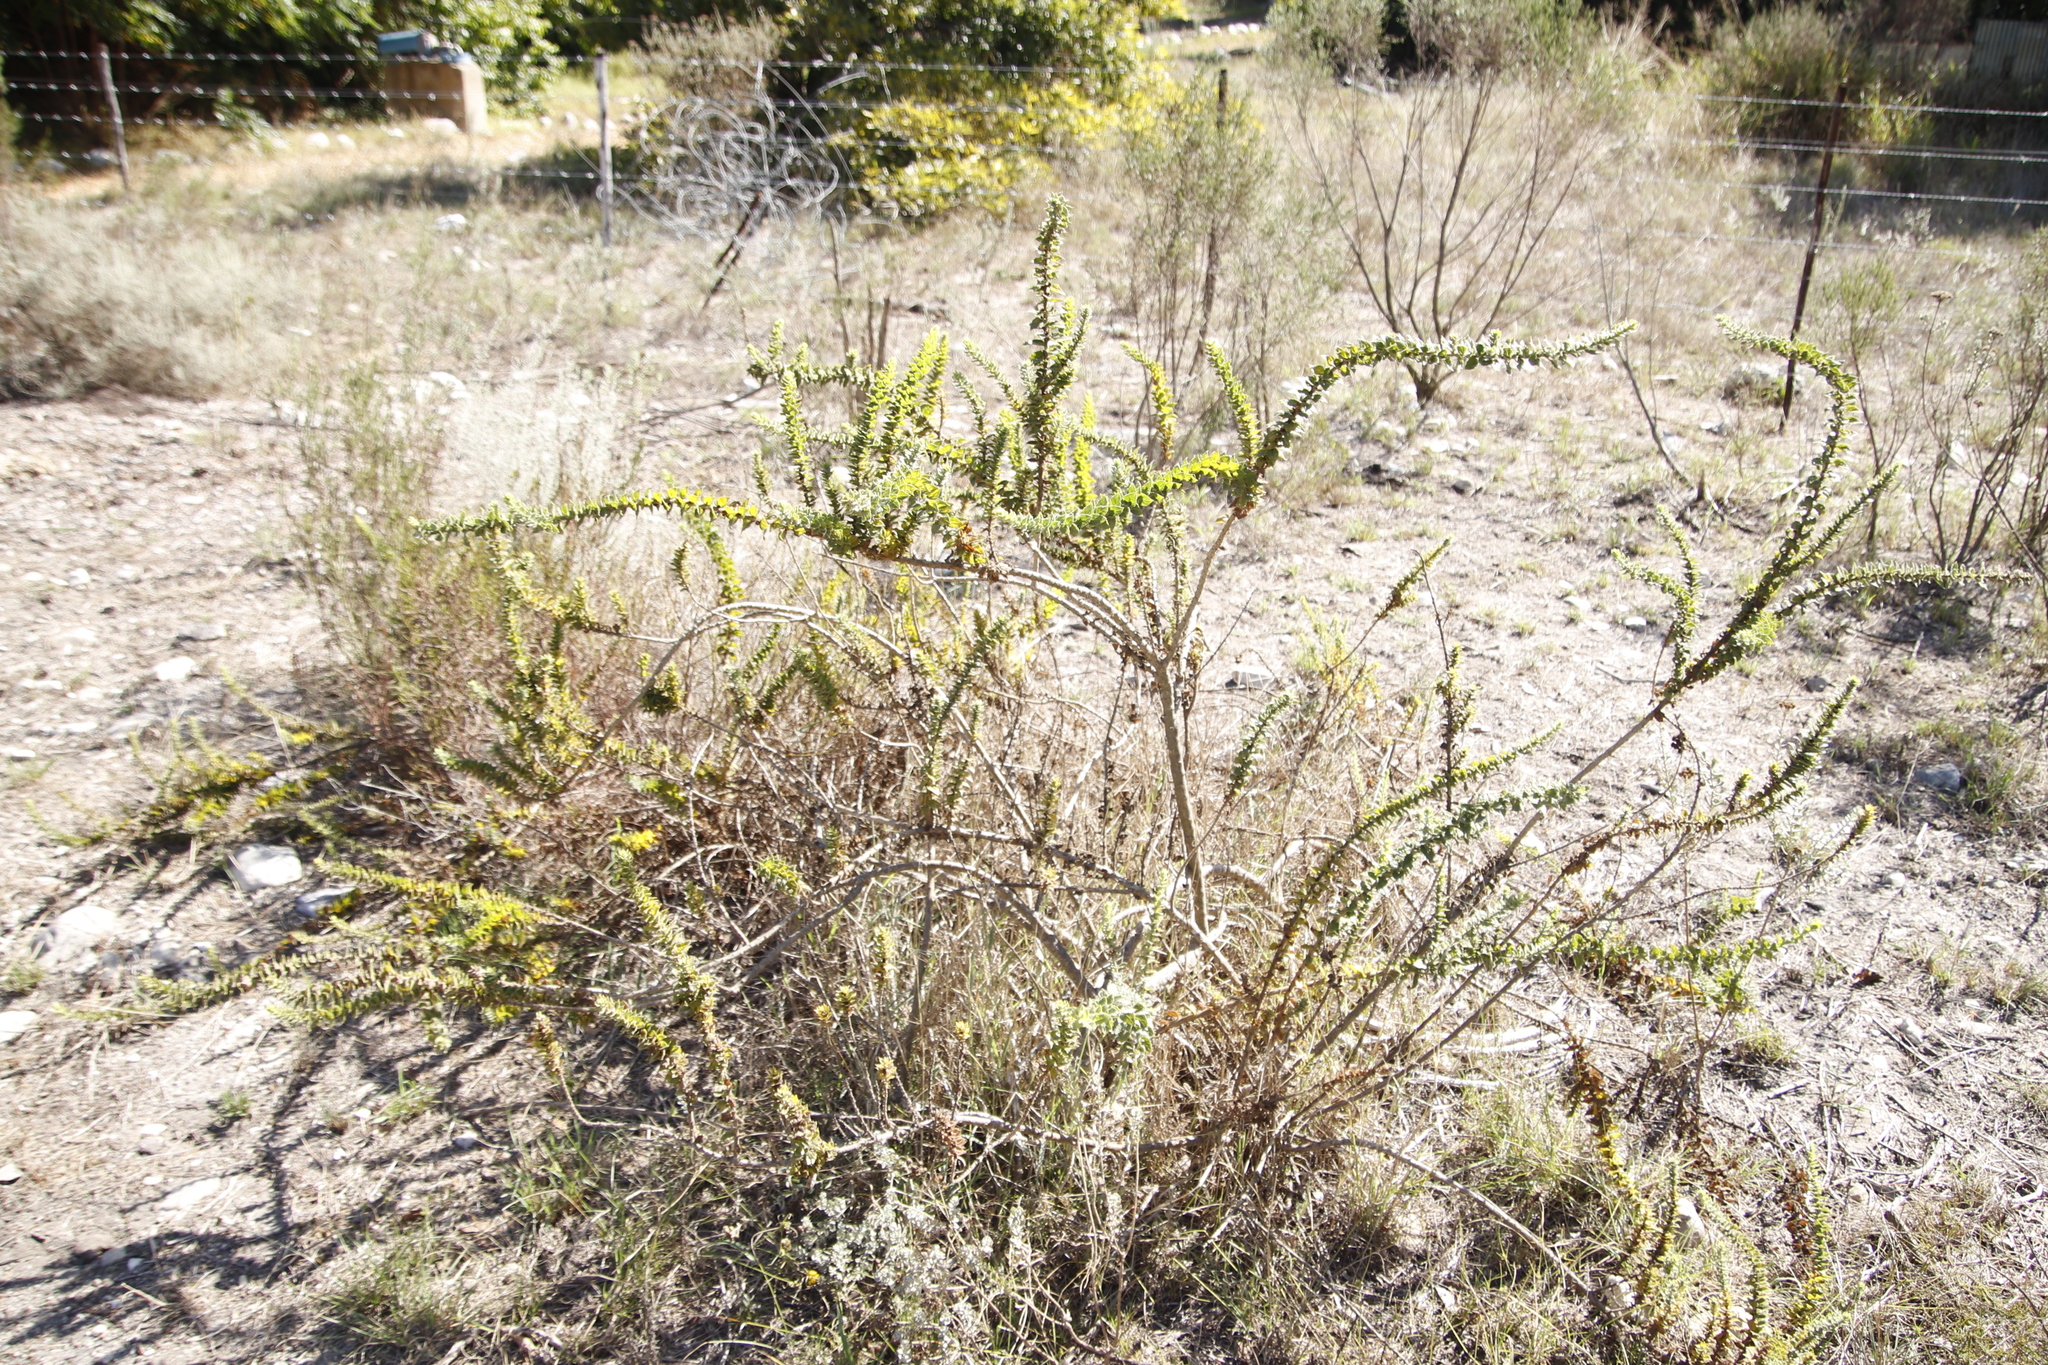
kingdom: Plantae
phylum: Tracheophyta
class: Magnoliopsida
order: Lamiales
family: Scrophulariaceae
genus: Oftia
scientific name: Oftia africana
